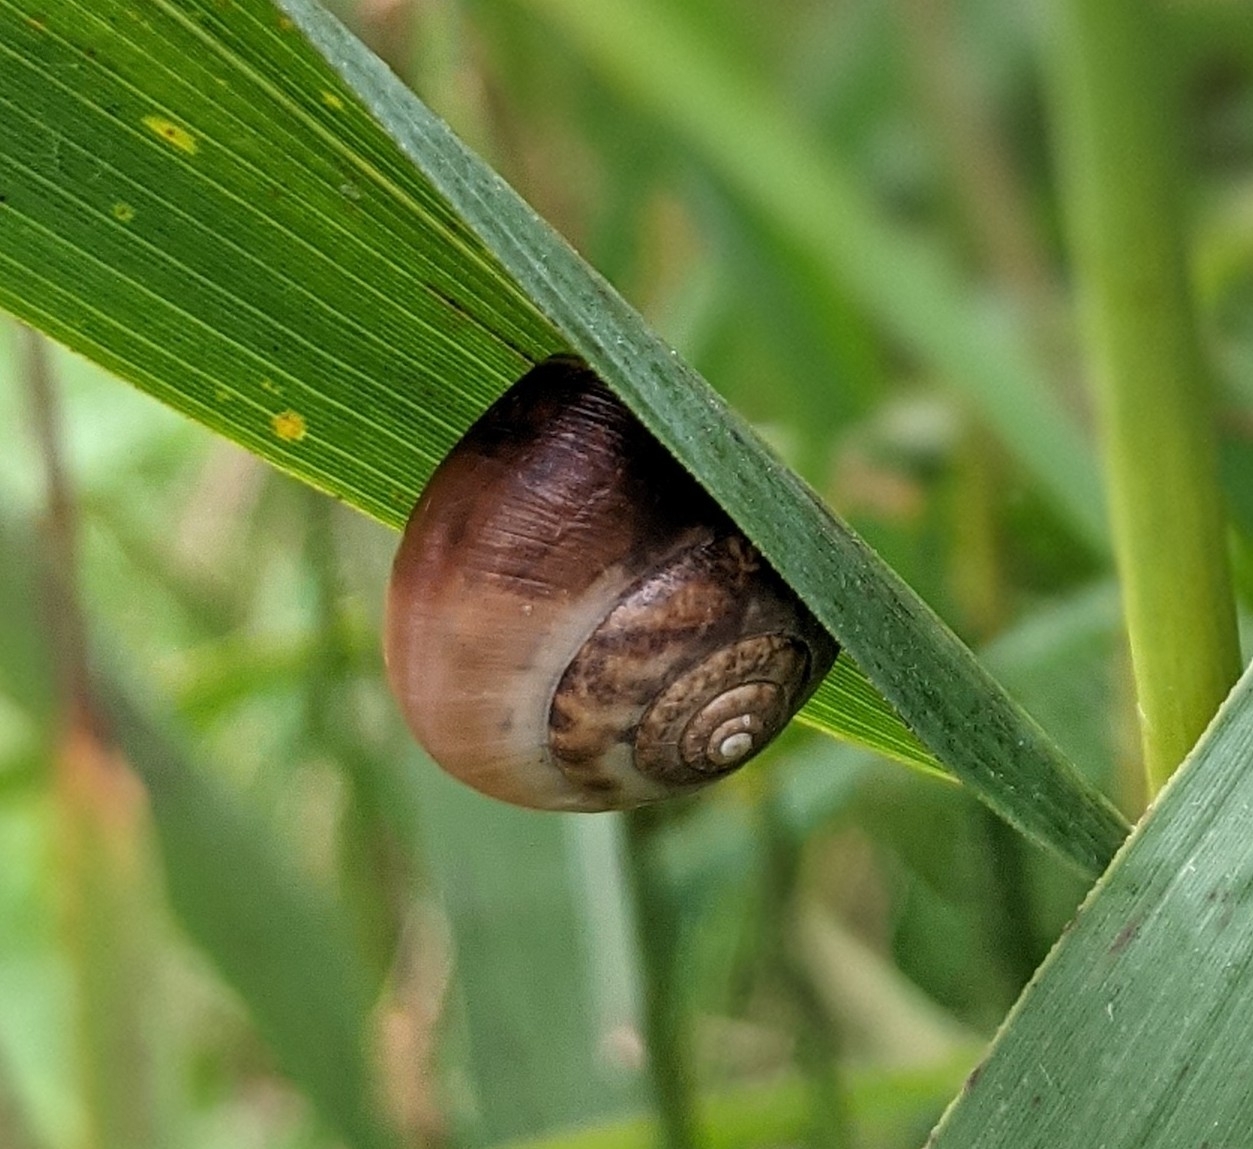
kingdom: Animalia
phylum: Mollusca
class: Gastropoda
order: Stylommatophora
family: Hygromiidae
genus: Monacha
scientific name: Monacha cantiana
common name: Kentish snail
